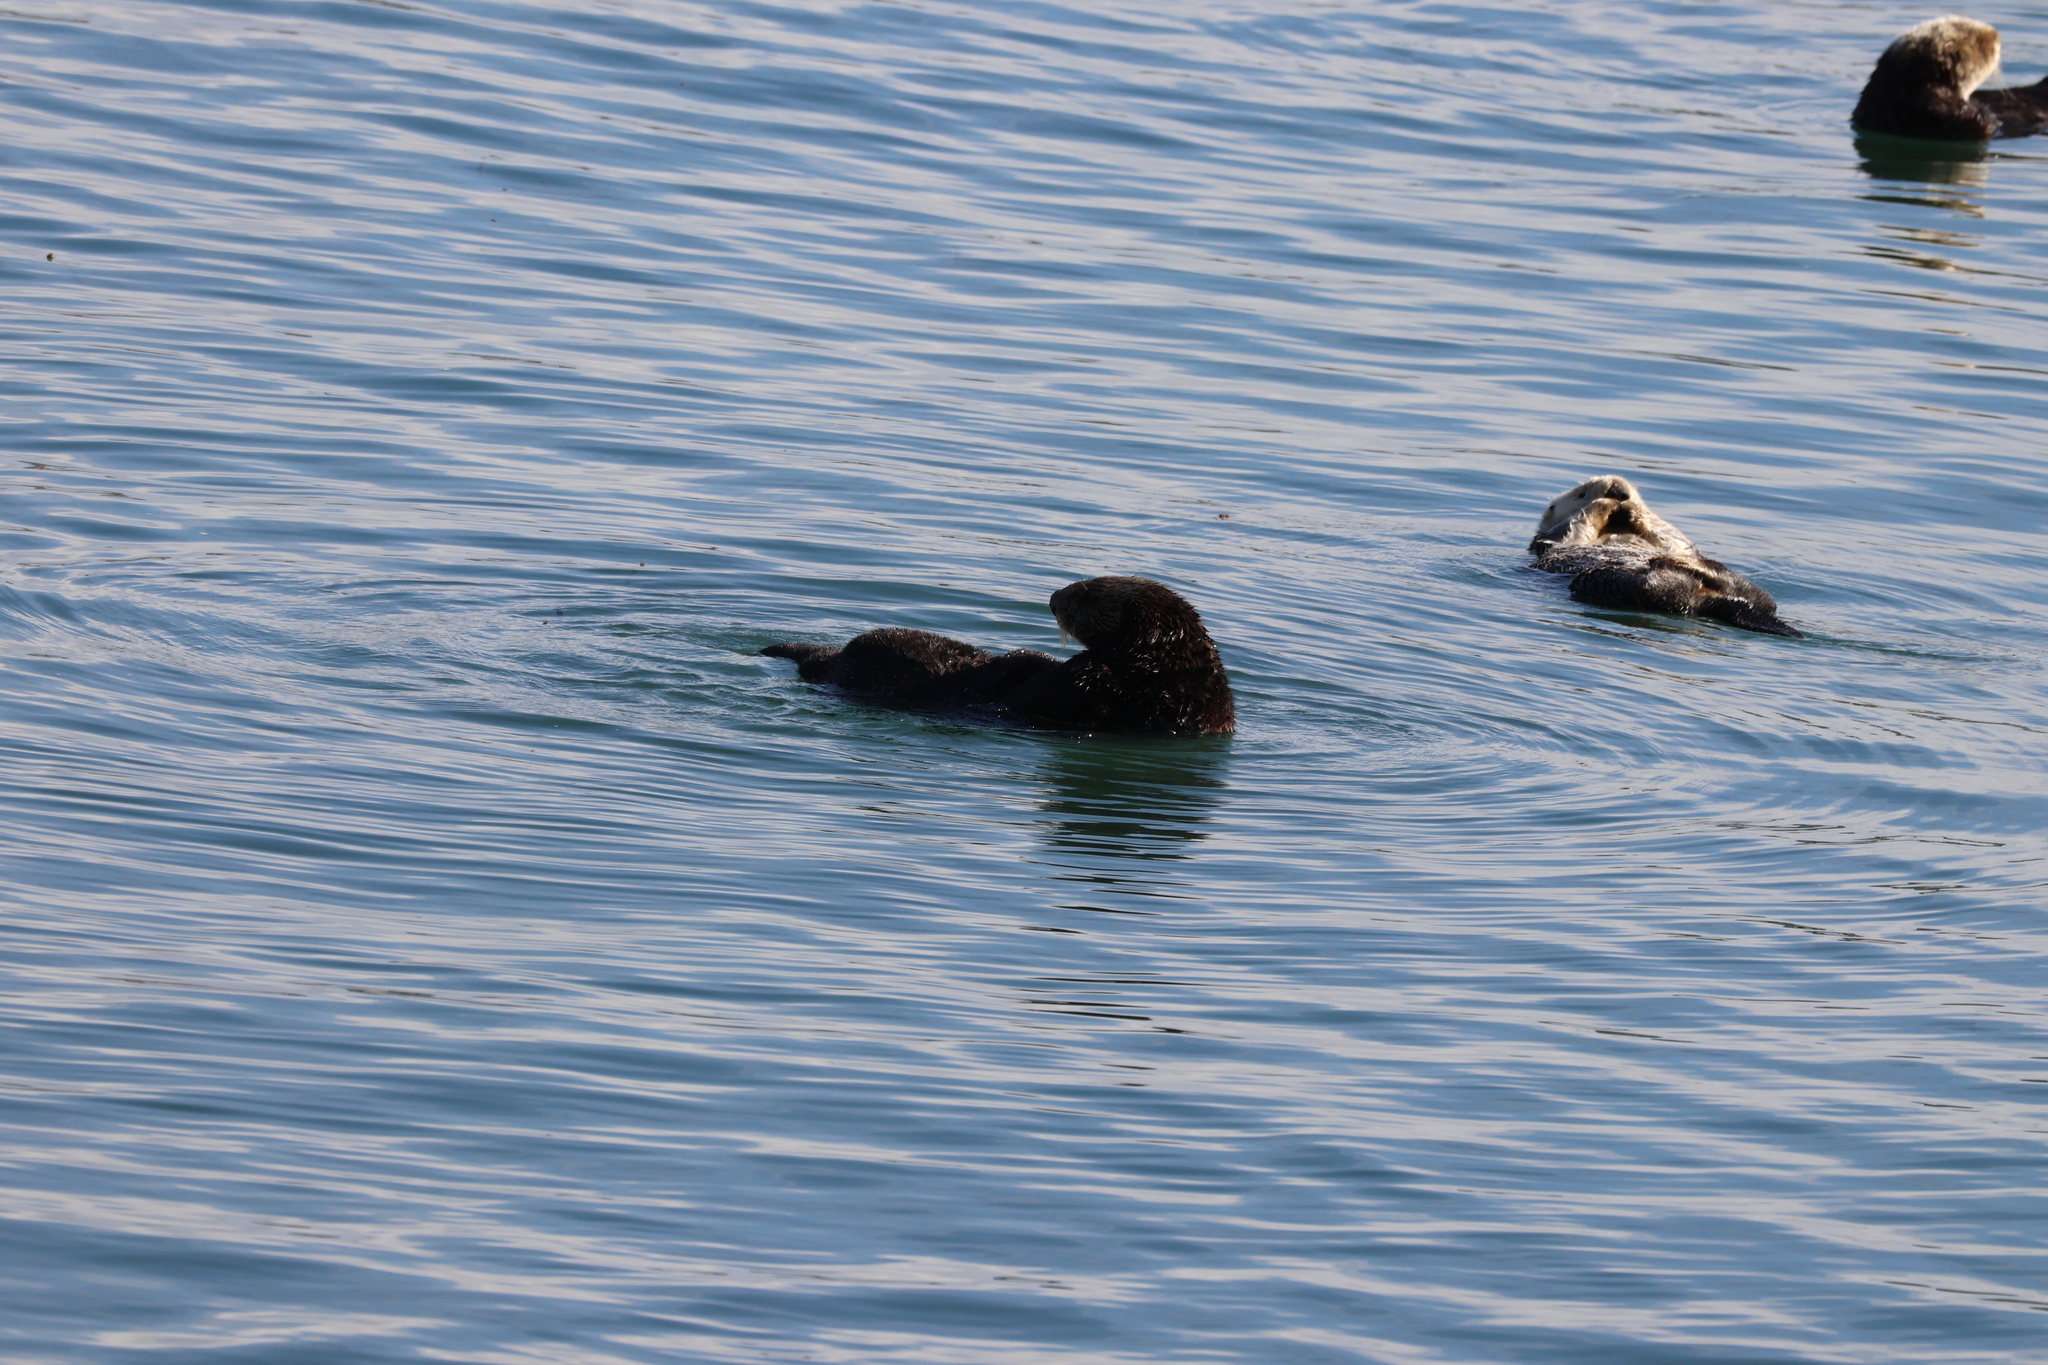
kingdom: Animalia
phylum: Chordata
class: Mammalia
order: Carnivora
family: Mustelidae
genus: Enhydra
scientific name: Enhydra lutris
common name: Sea otter
